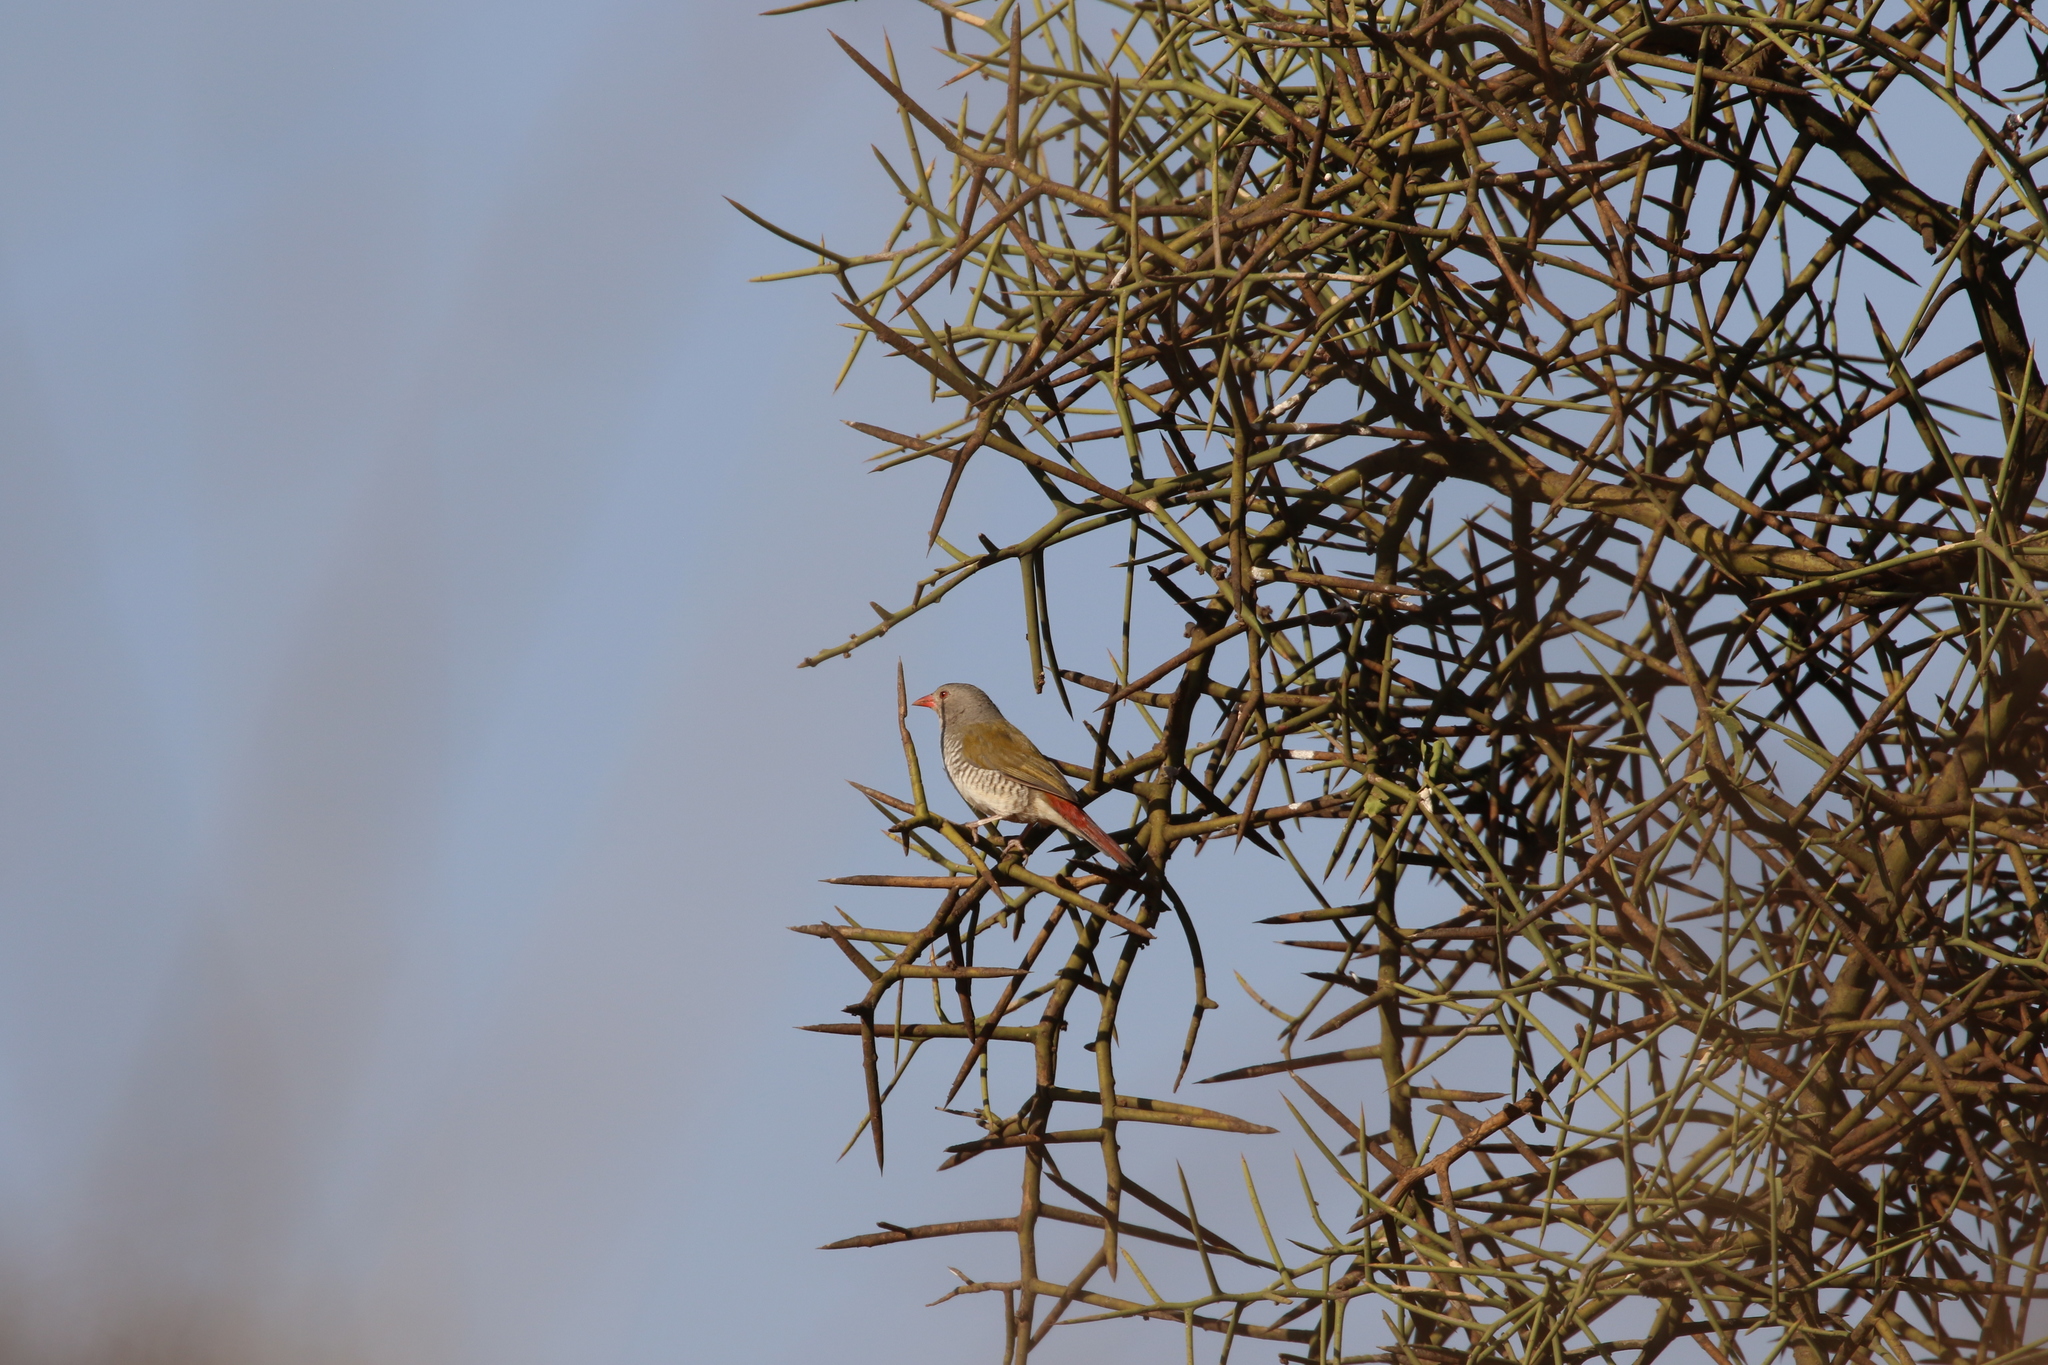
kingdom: Animalia
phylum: Chordata
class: Aves
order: Passeriformes
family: Estrildidae
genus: Pytilia
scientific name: Pytilia melba
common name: Green-winged pytilia
